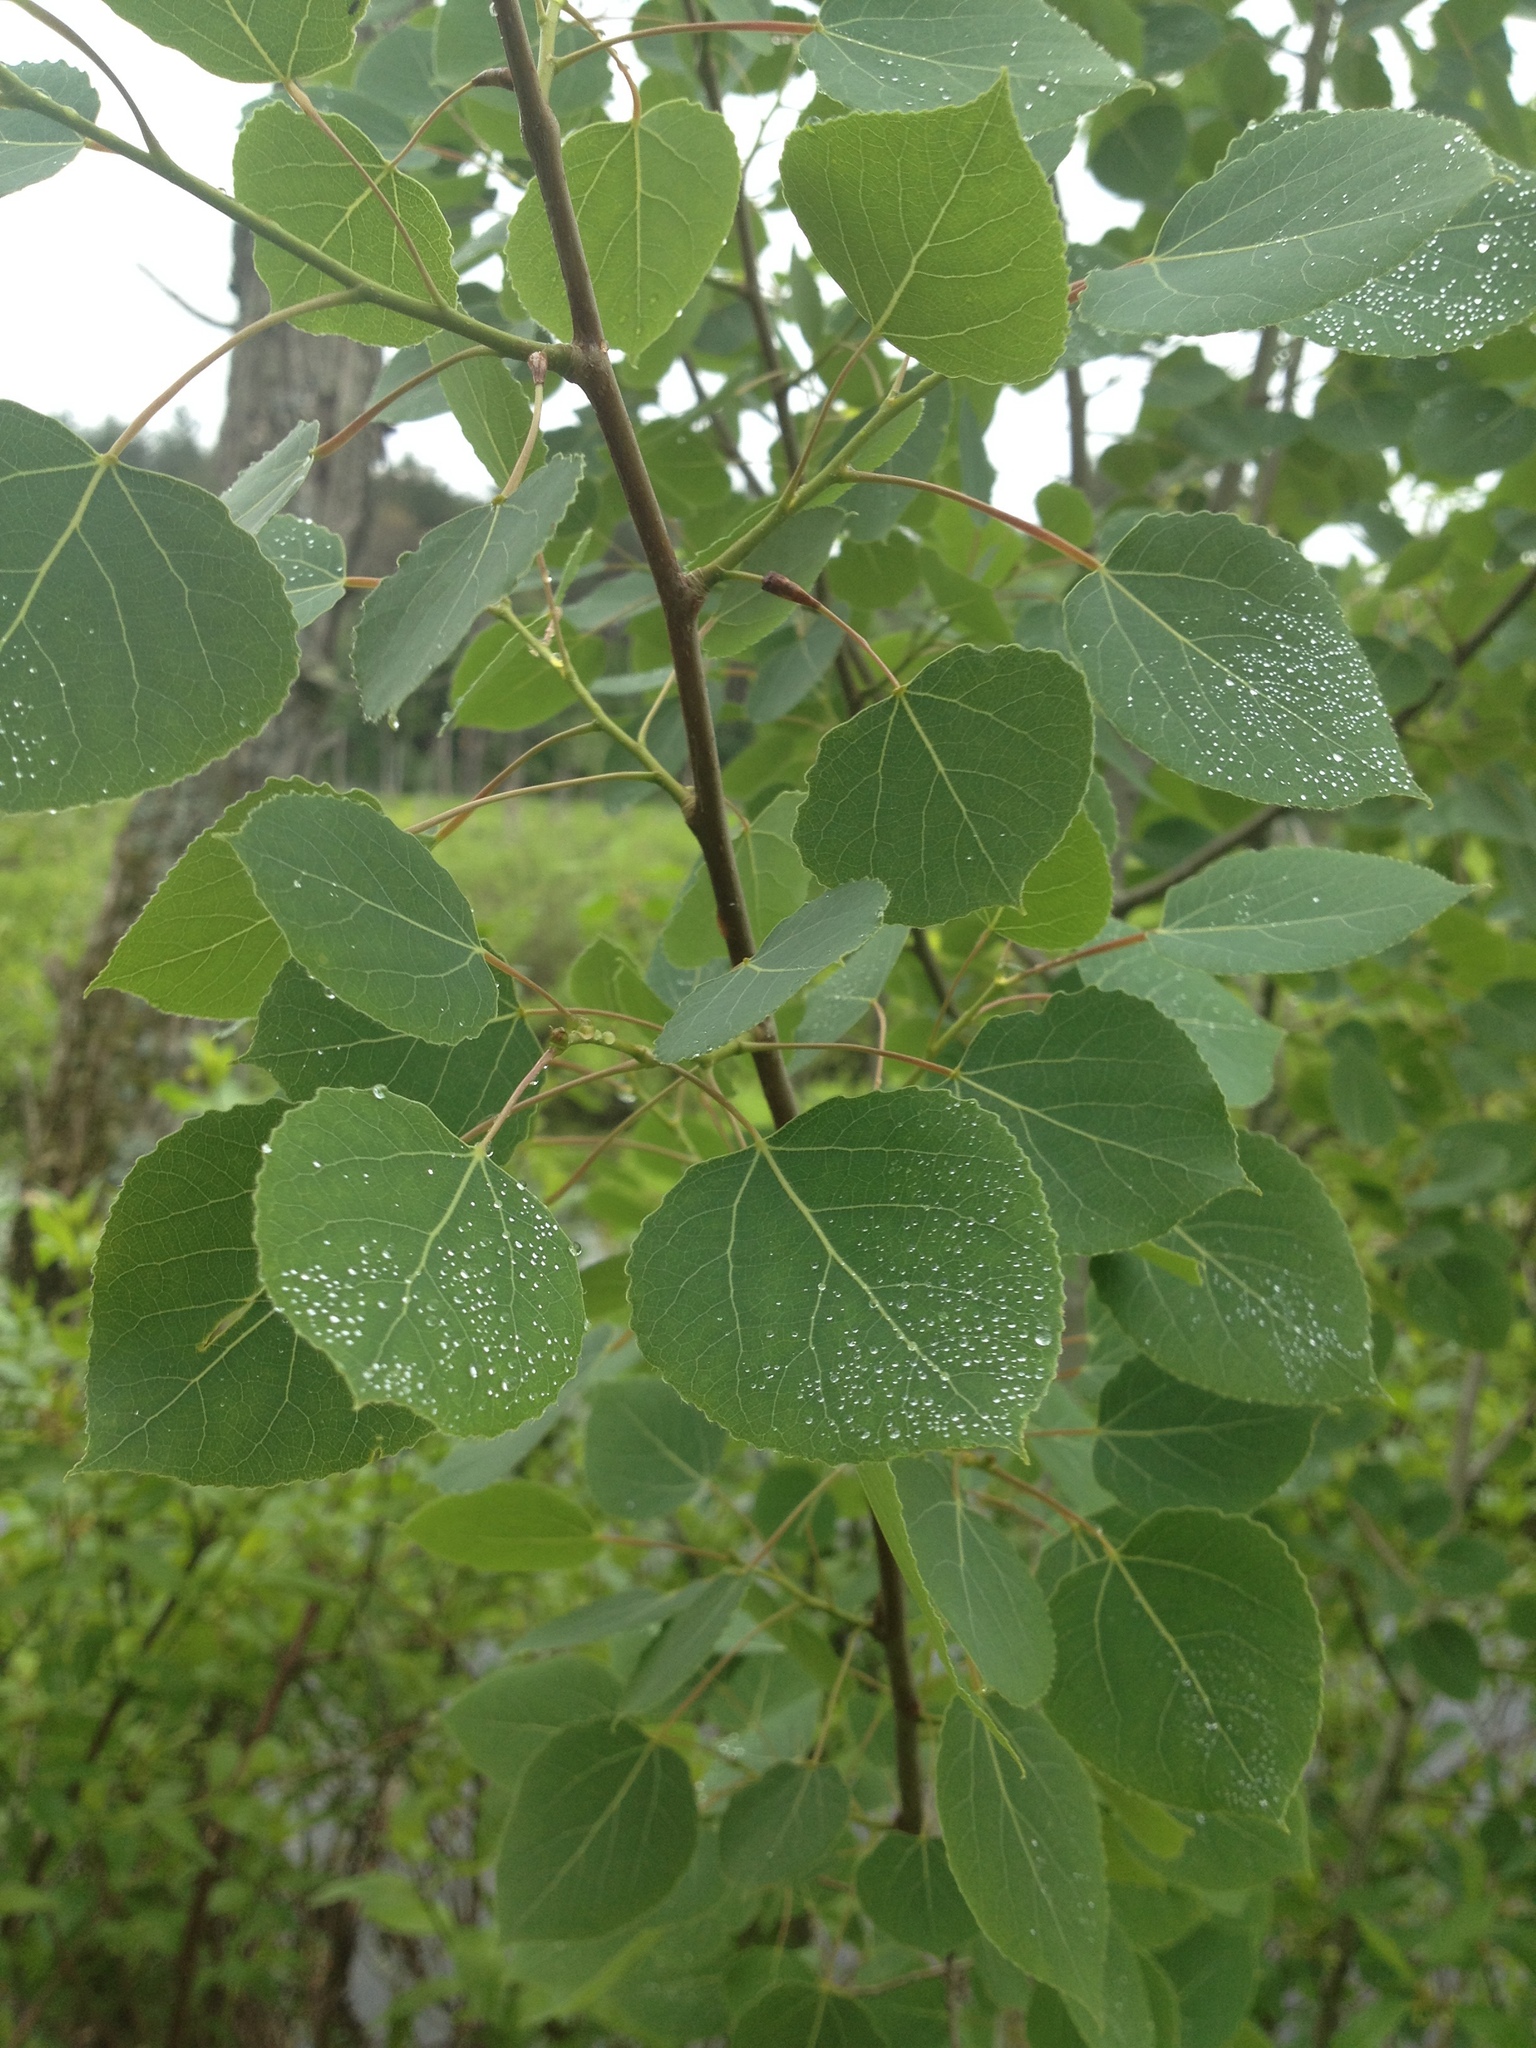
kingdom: Plantae
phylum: Tracheophyta
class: Magnoliopsida
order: Malpighiales
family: Salicaceae
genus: Populus
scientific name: Populus tremuloides
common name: Quaking aspen
